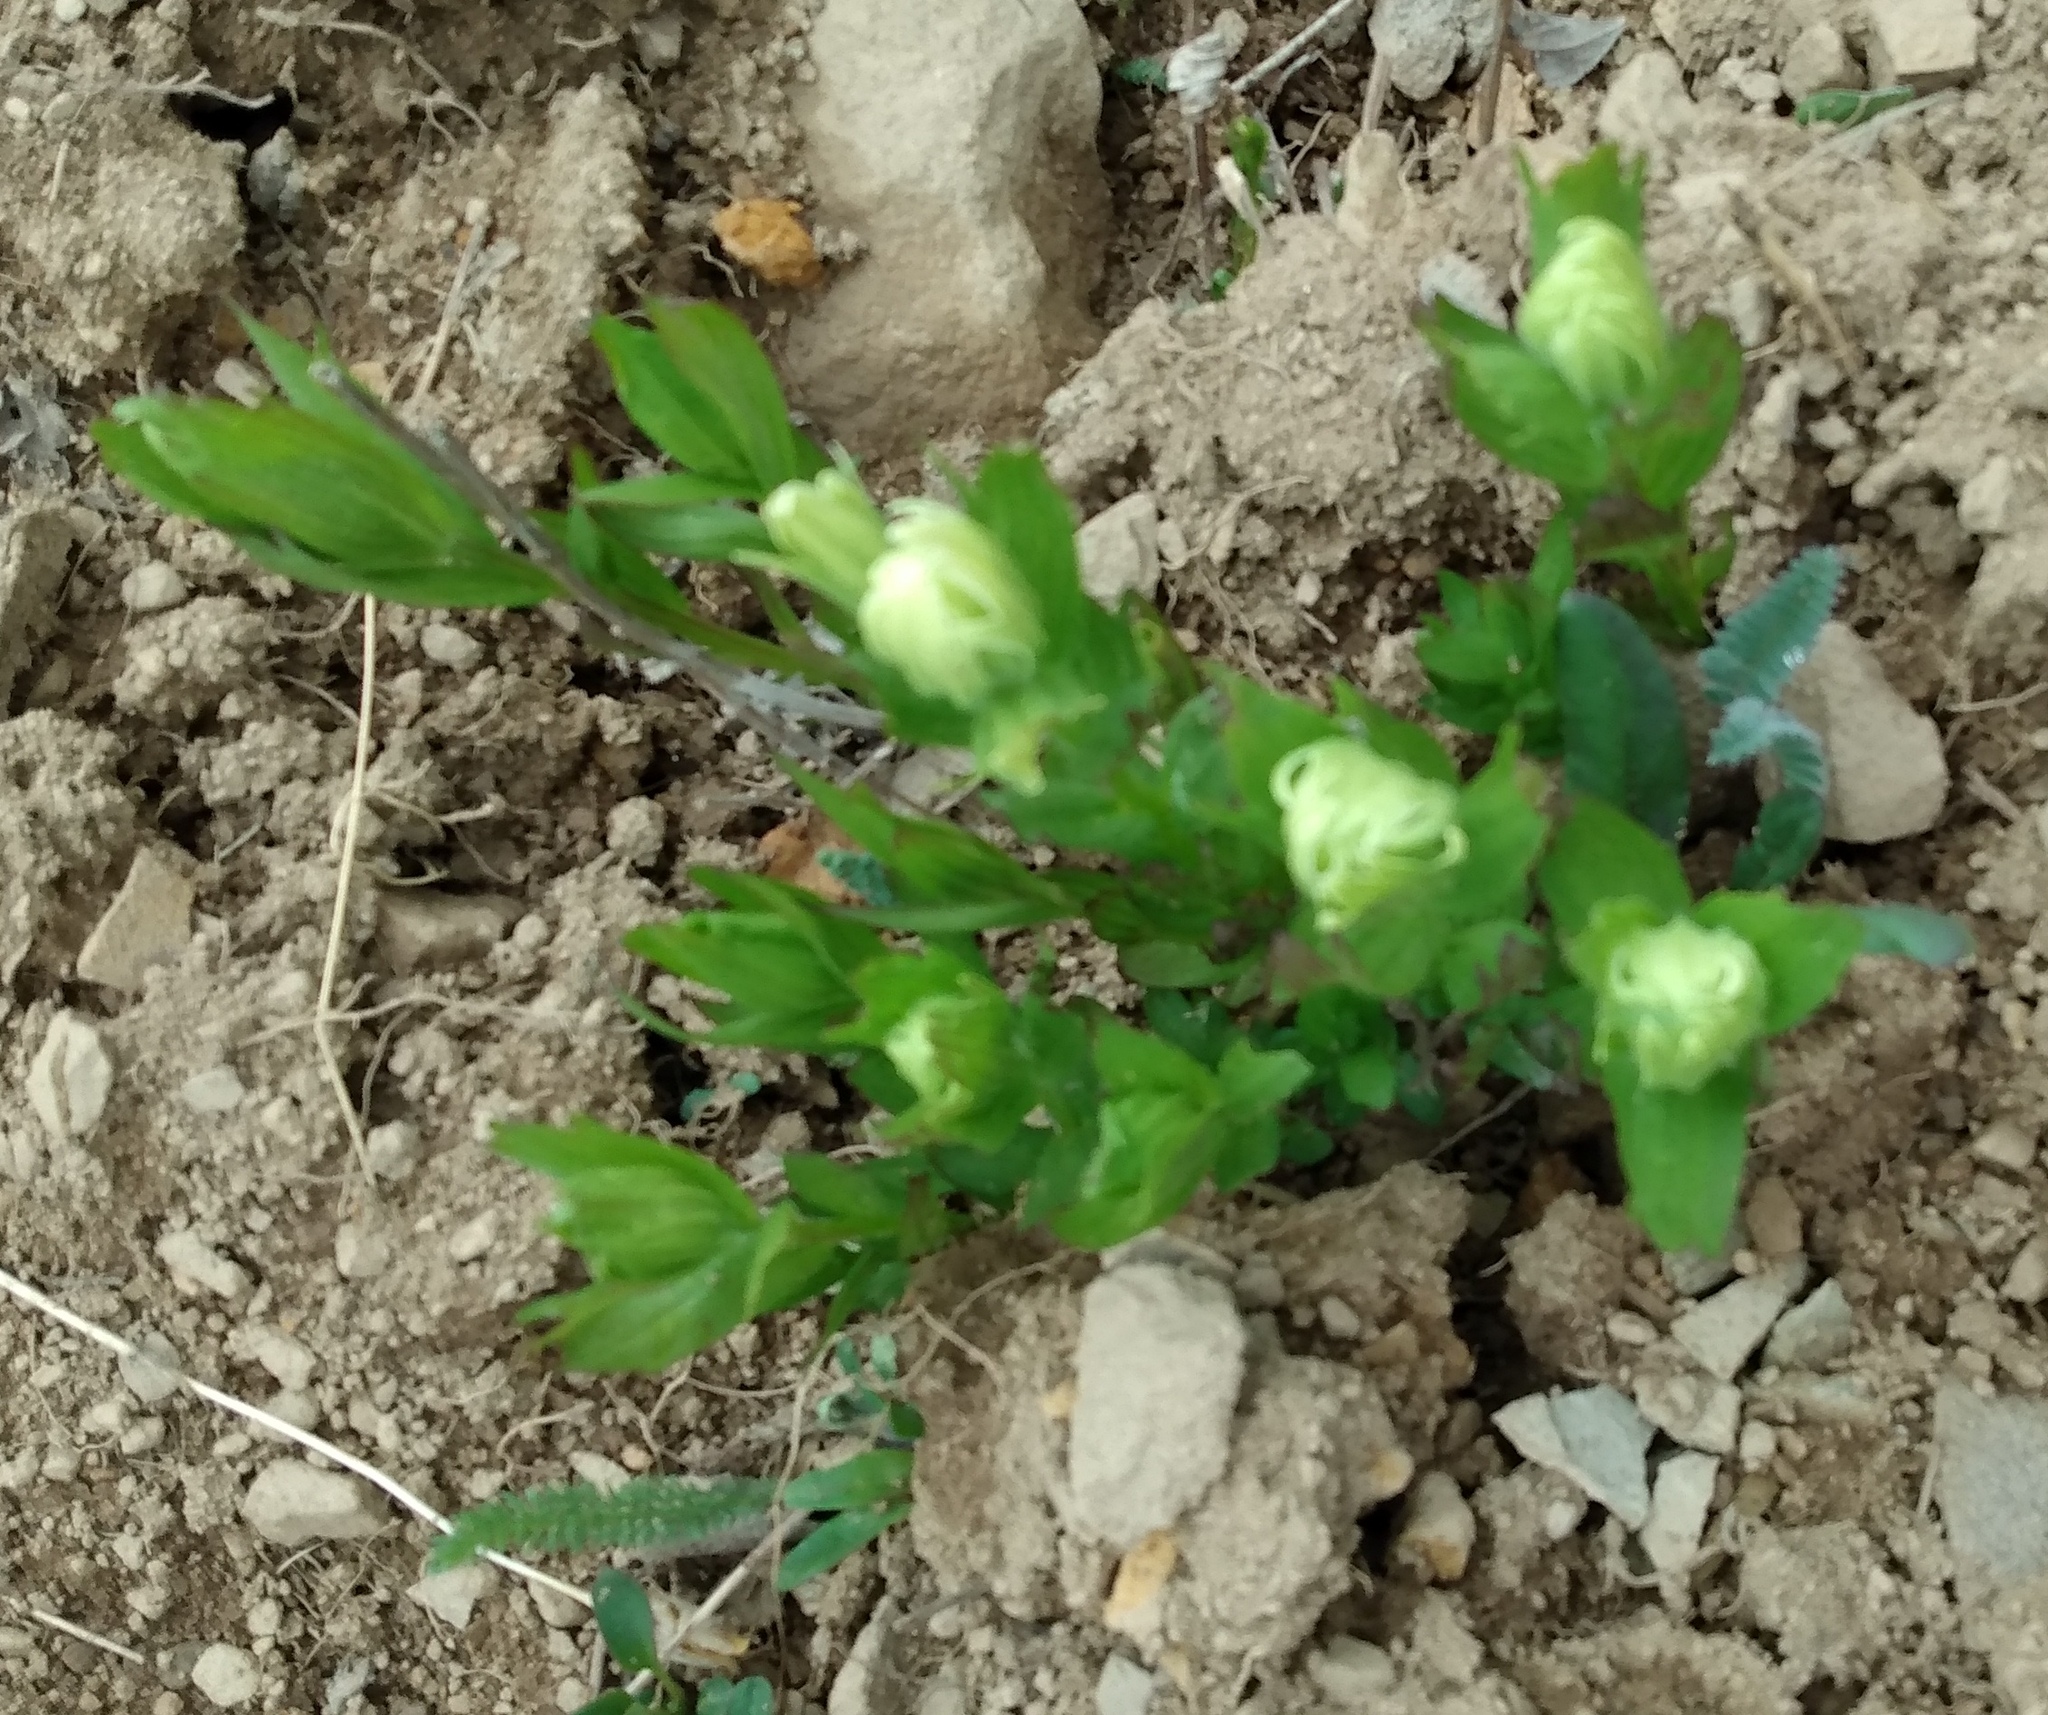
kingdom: Plantae
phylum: Tracheophyta
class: Magnoliopsida
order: Lamiales
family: Orobanchaceae
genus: Castilleja
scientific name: Castilleja occidentalis
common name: Western paintbrush
